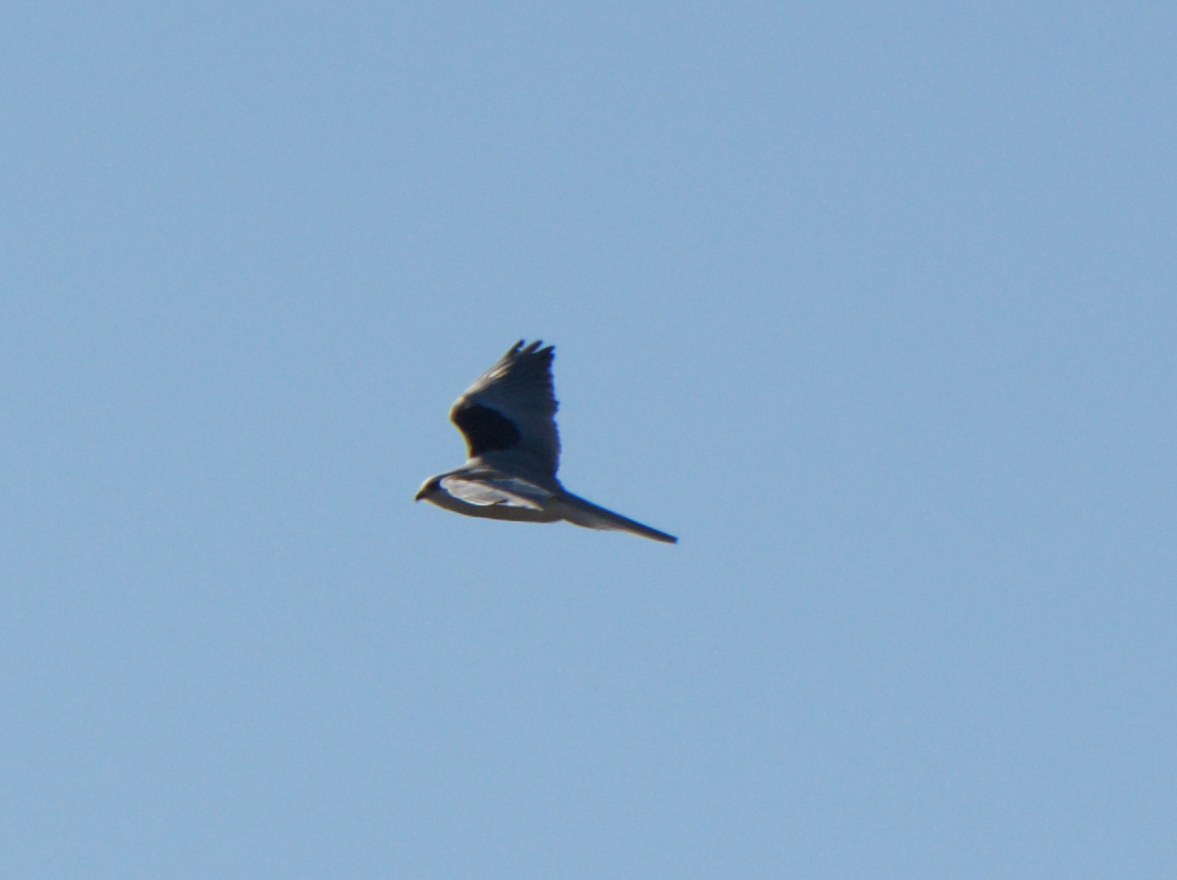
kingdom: Animalia
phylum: Chordata
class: Aves
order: Accipitriformes
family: Accipitridae
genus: Elanus
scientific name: Elanus leucurus
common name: White-tailed kite
